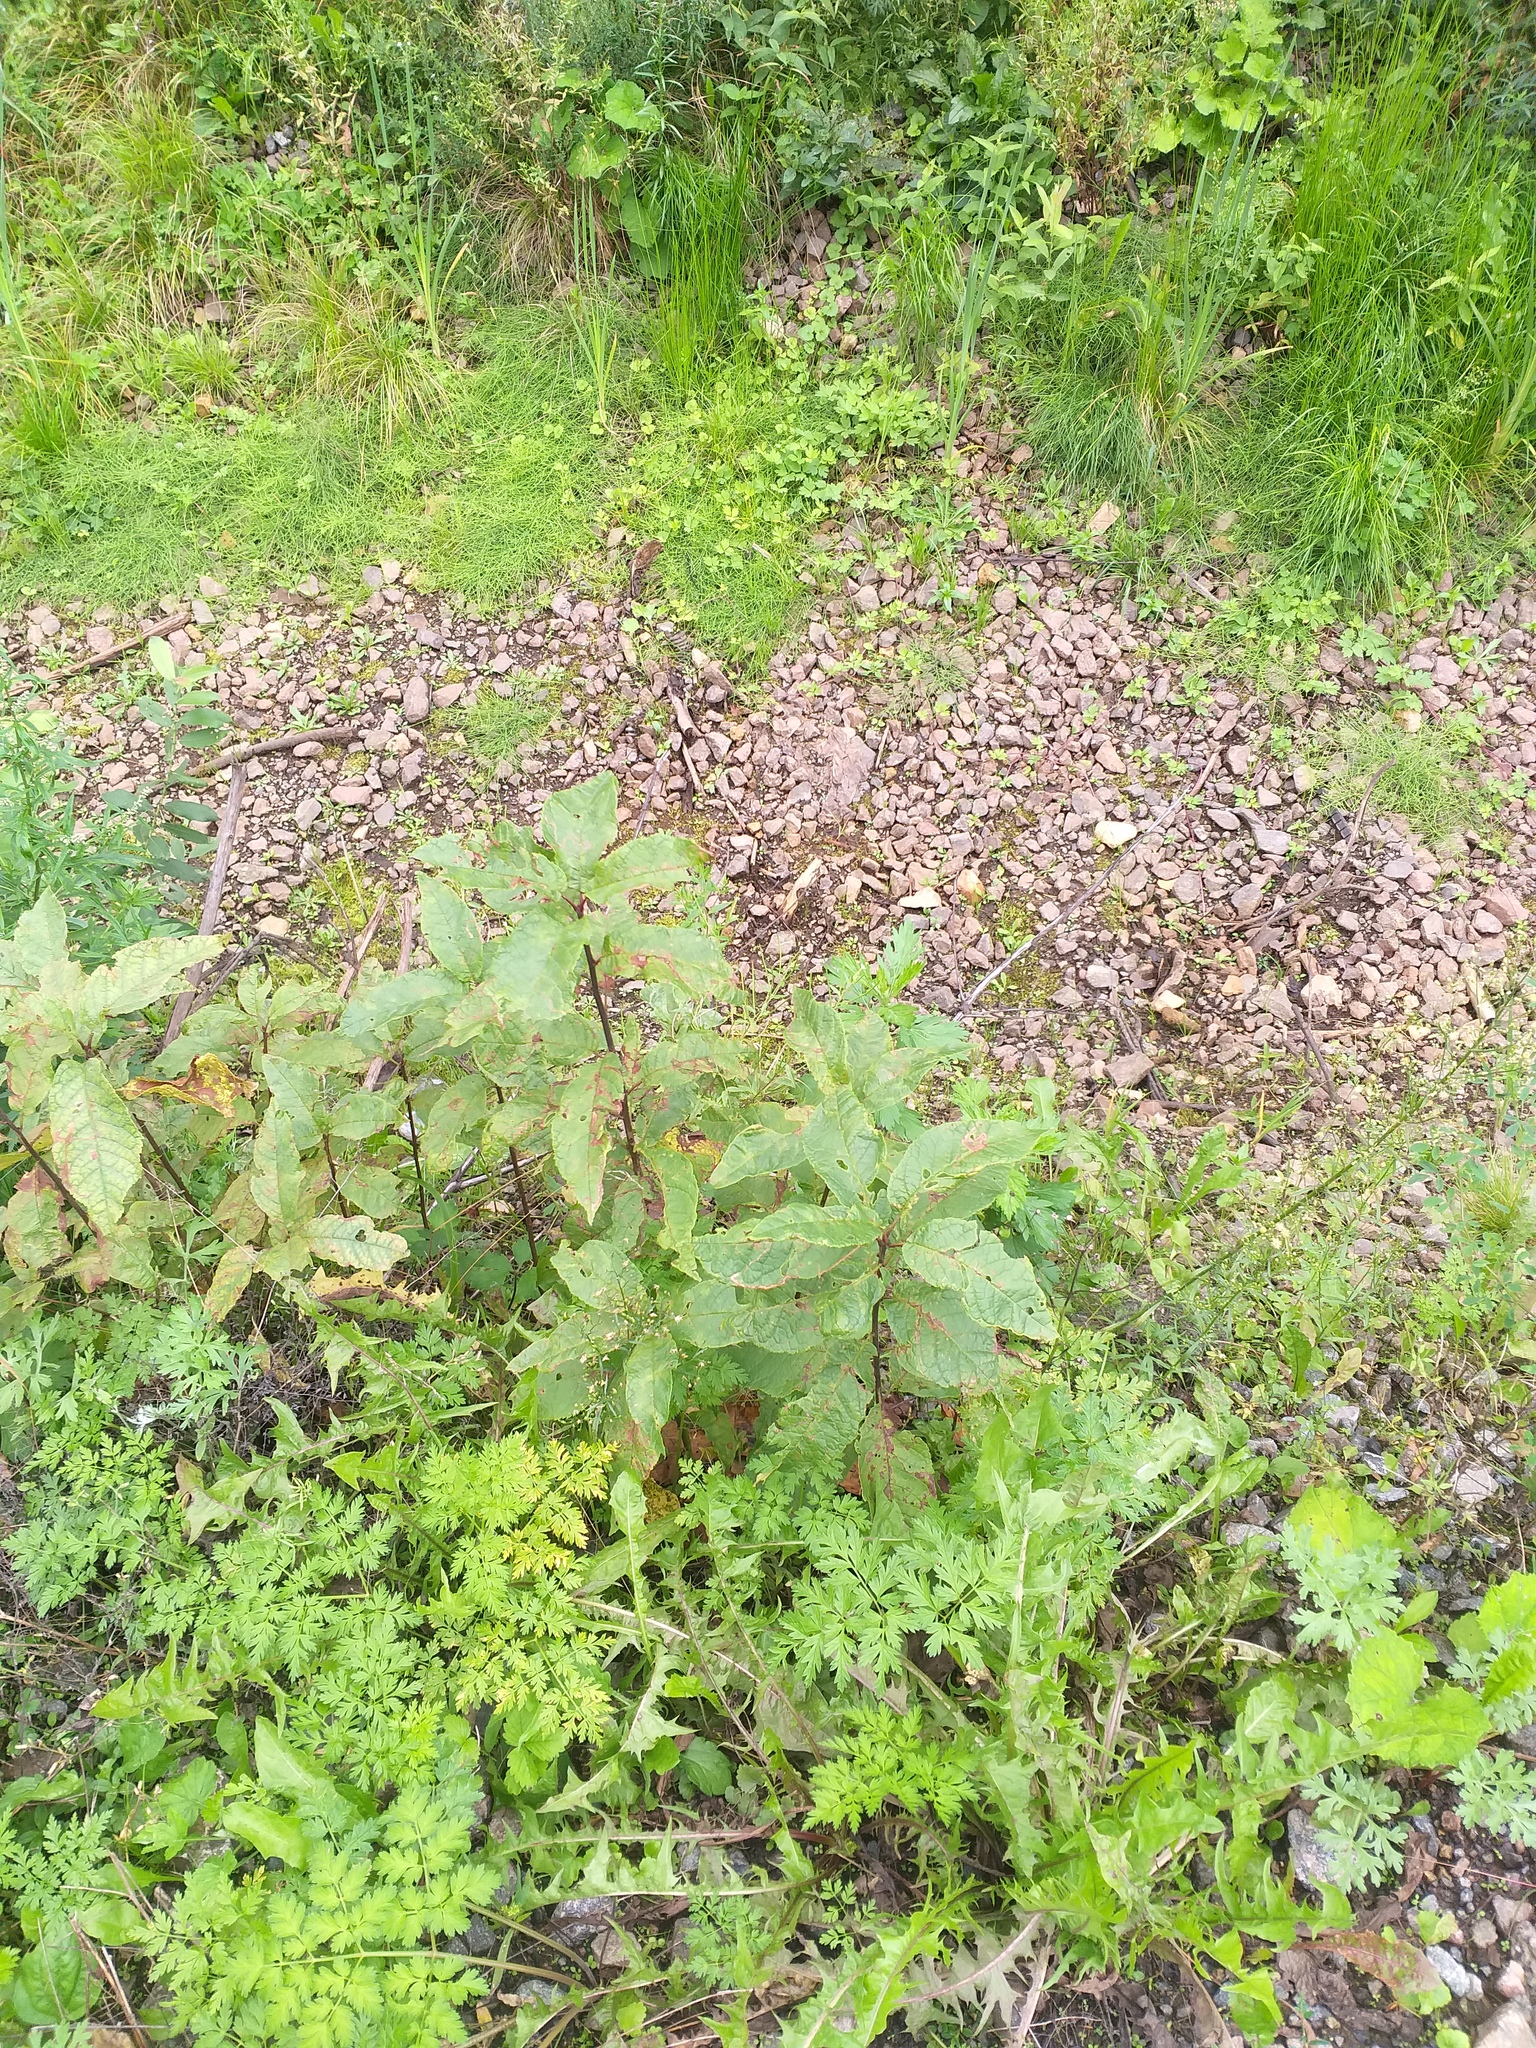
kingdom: Plantae
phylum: Tracheophyta
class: Magnoliopsida
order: Rosales
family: Rosaceae
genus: Prunus
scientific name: Prunus padus
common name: Bird cherry
